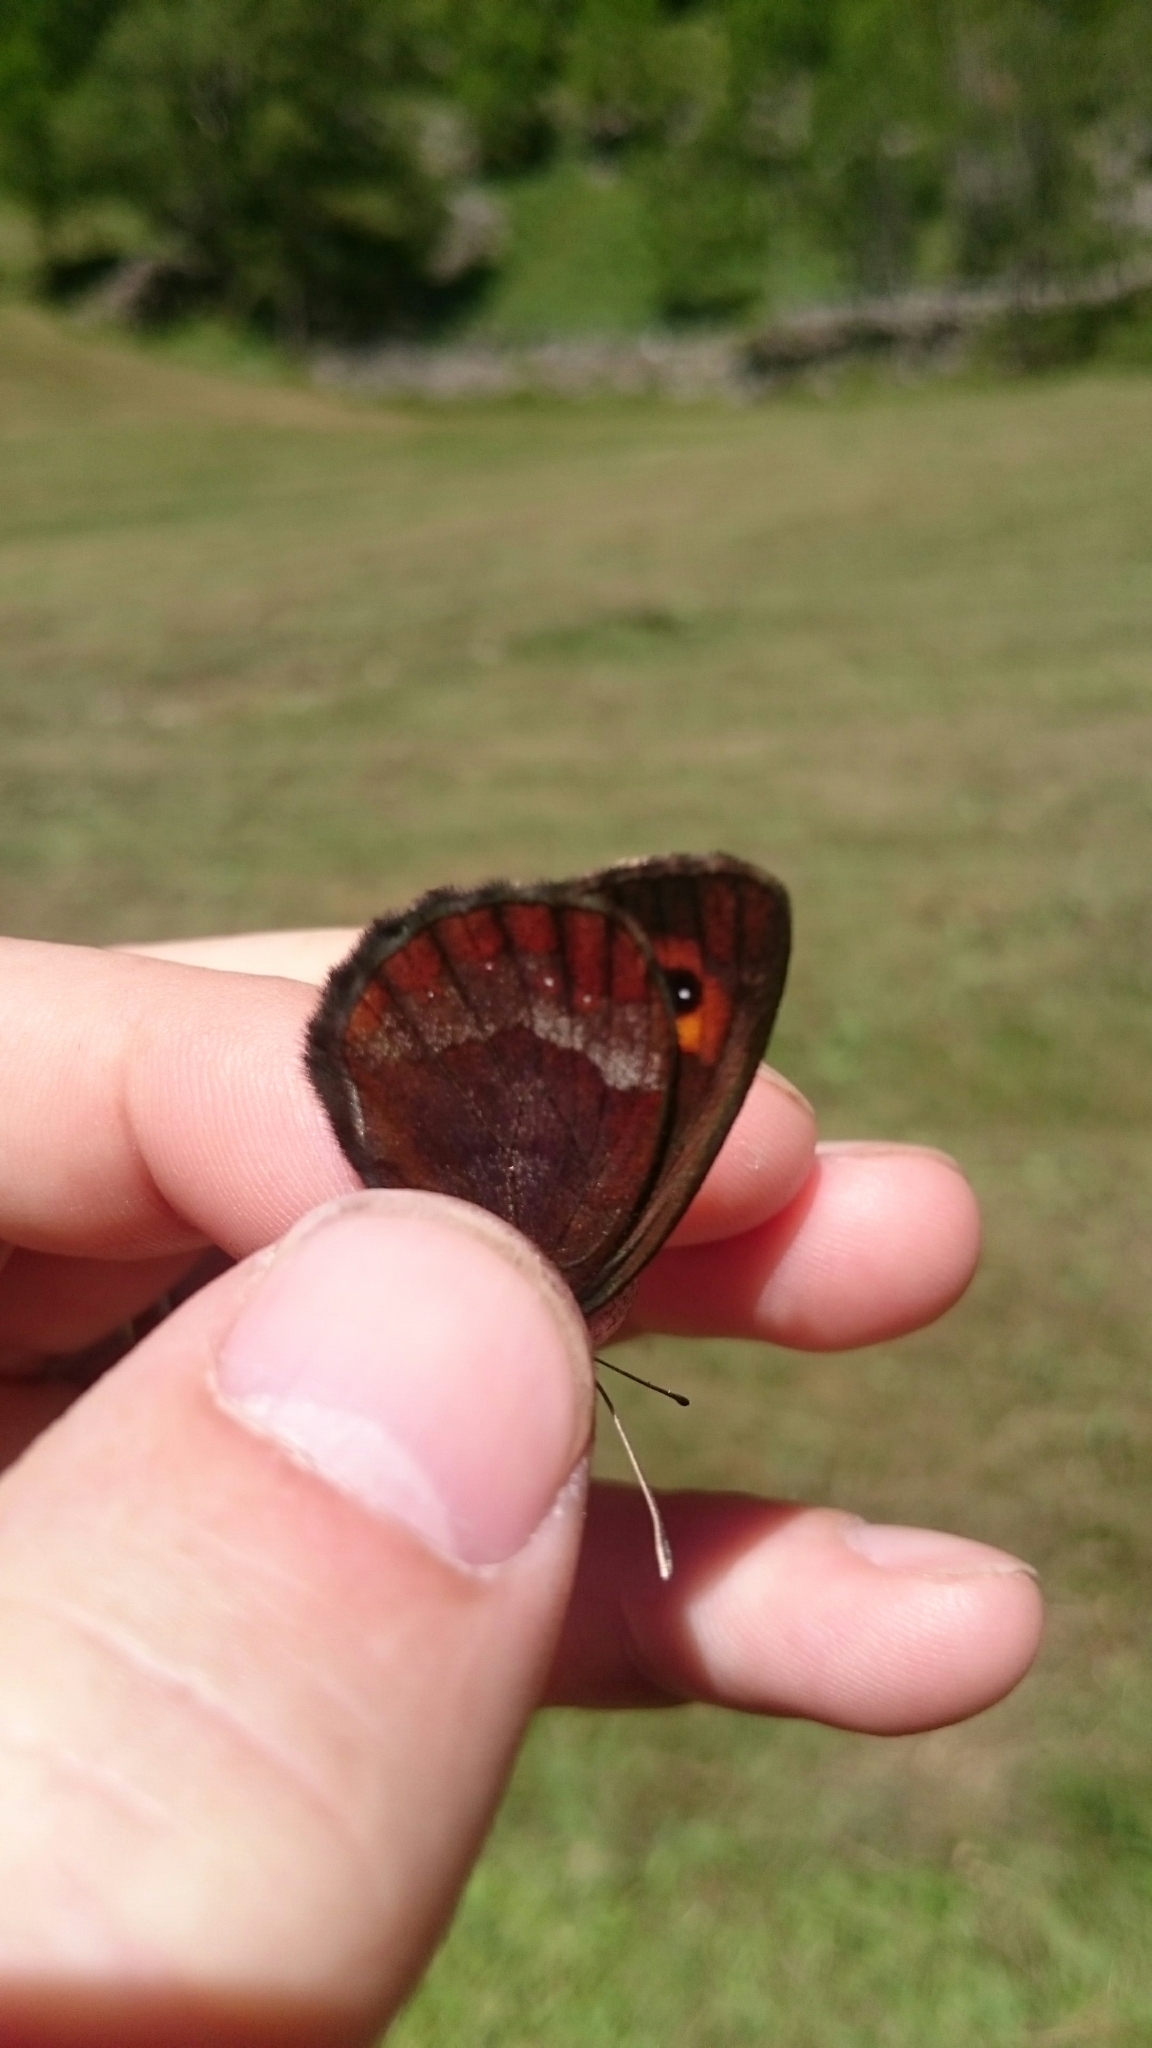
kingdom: Animalia
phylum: Arthropoda
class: Insecta
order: Lepidoptera
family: Nymphalidae
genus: Erebia
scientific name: Erebia aethiops
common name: Scotch argus
